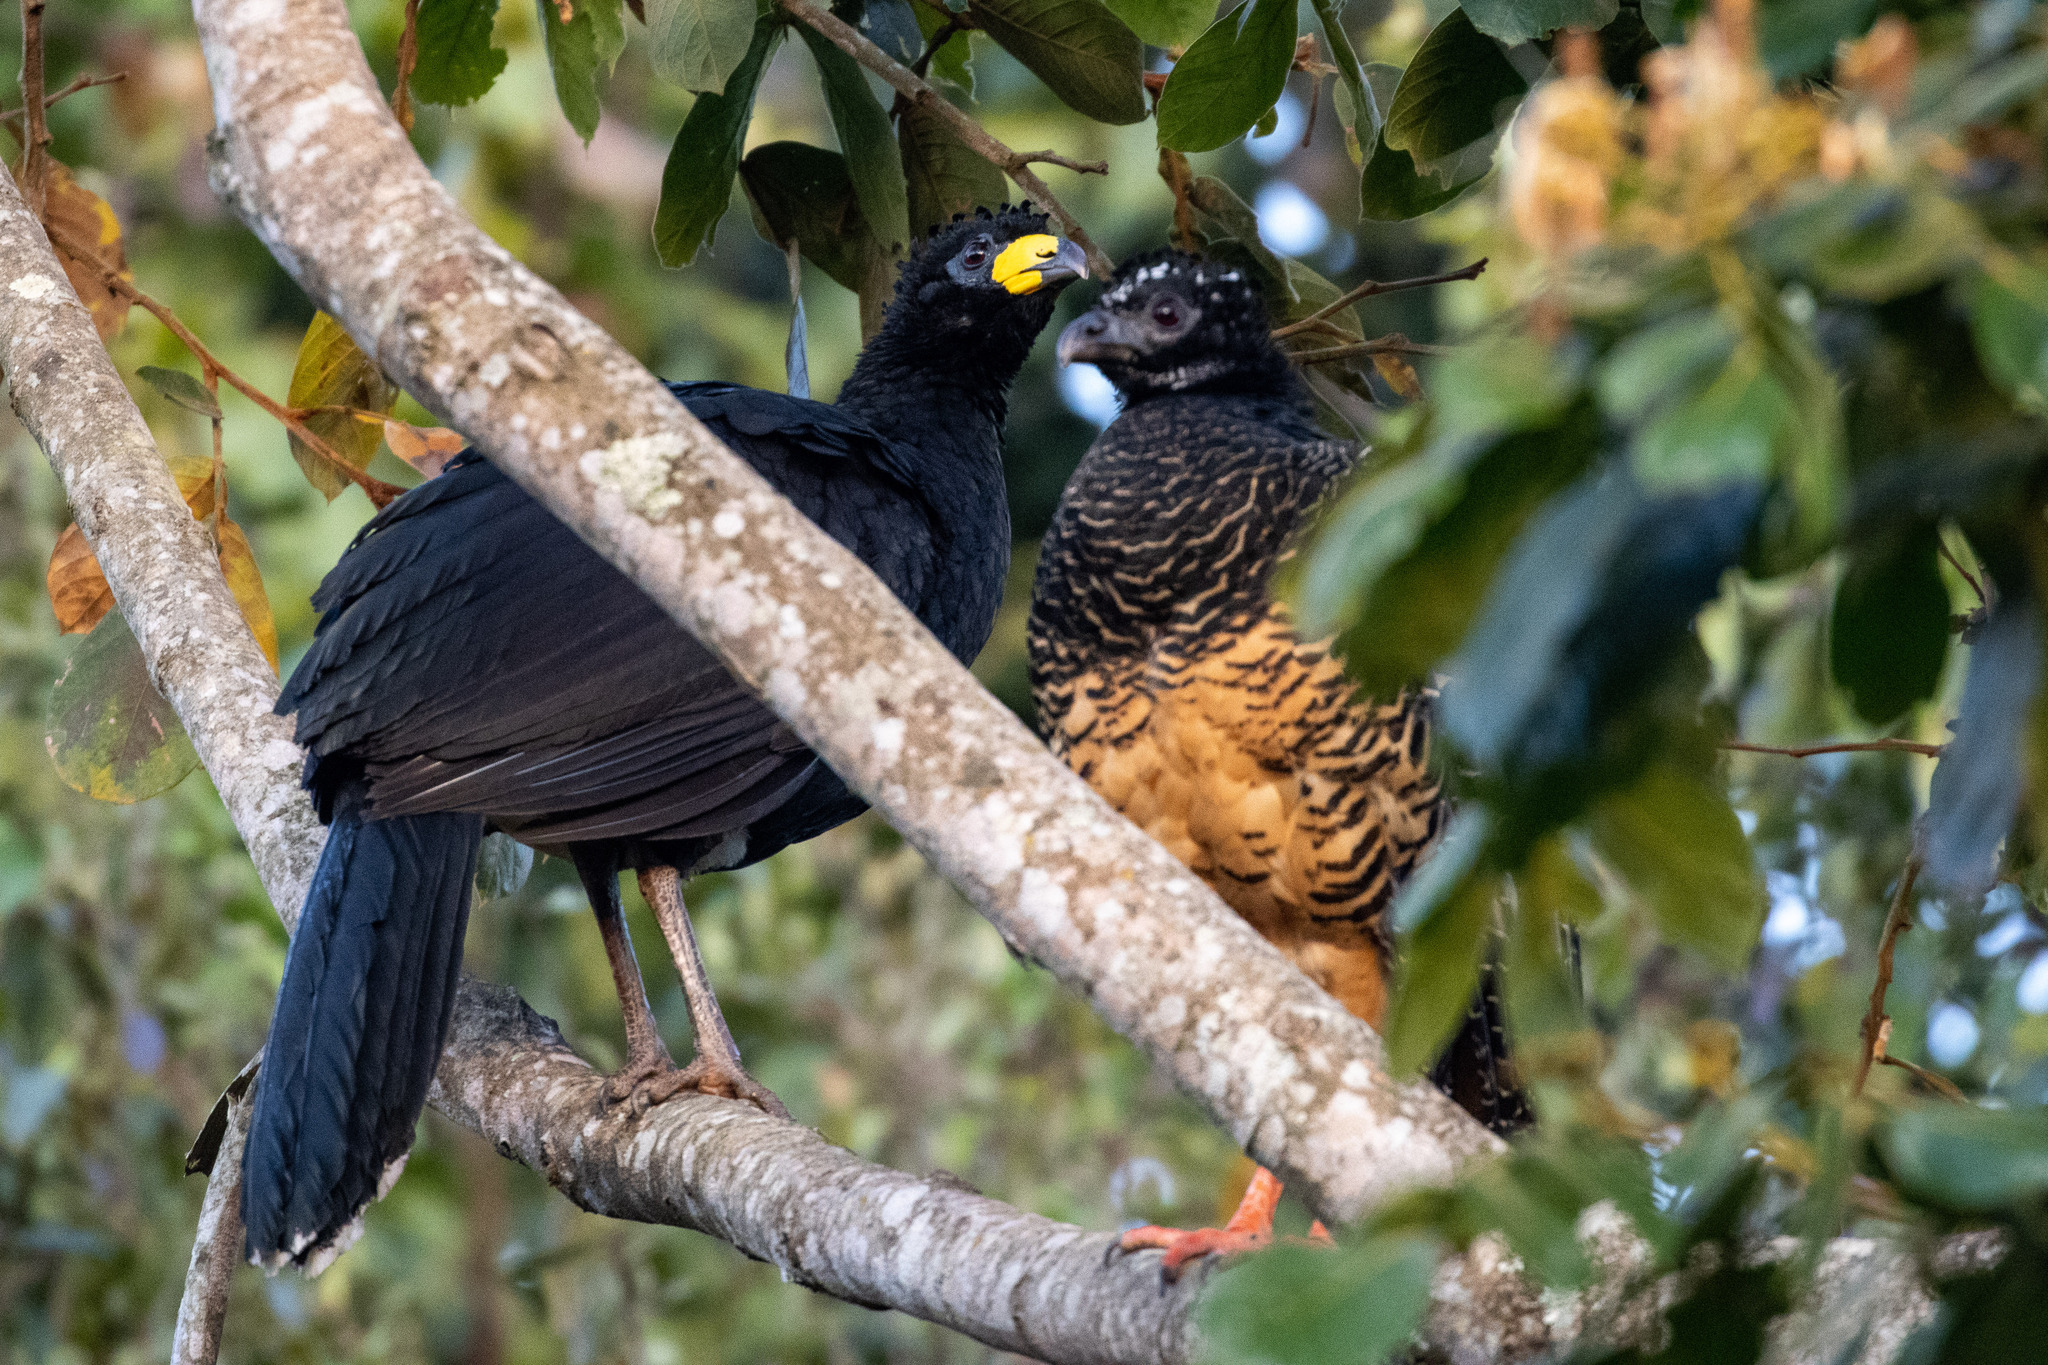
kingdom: Animalia
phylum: Chordata
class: Aves
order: Galliformes
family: Cracidae
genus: Crax
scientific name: Crax fasciolata
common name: Bare-faced curassow
